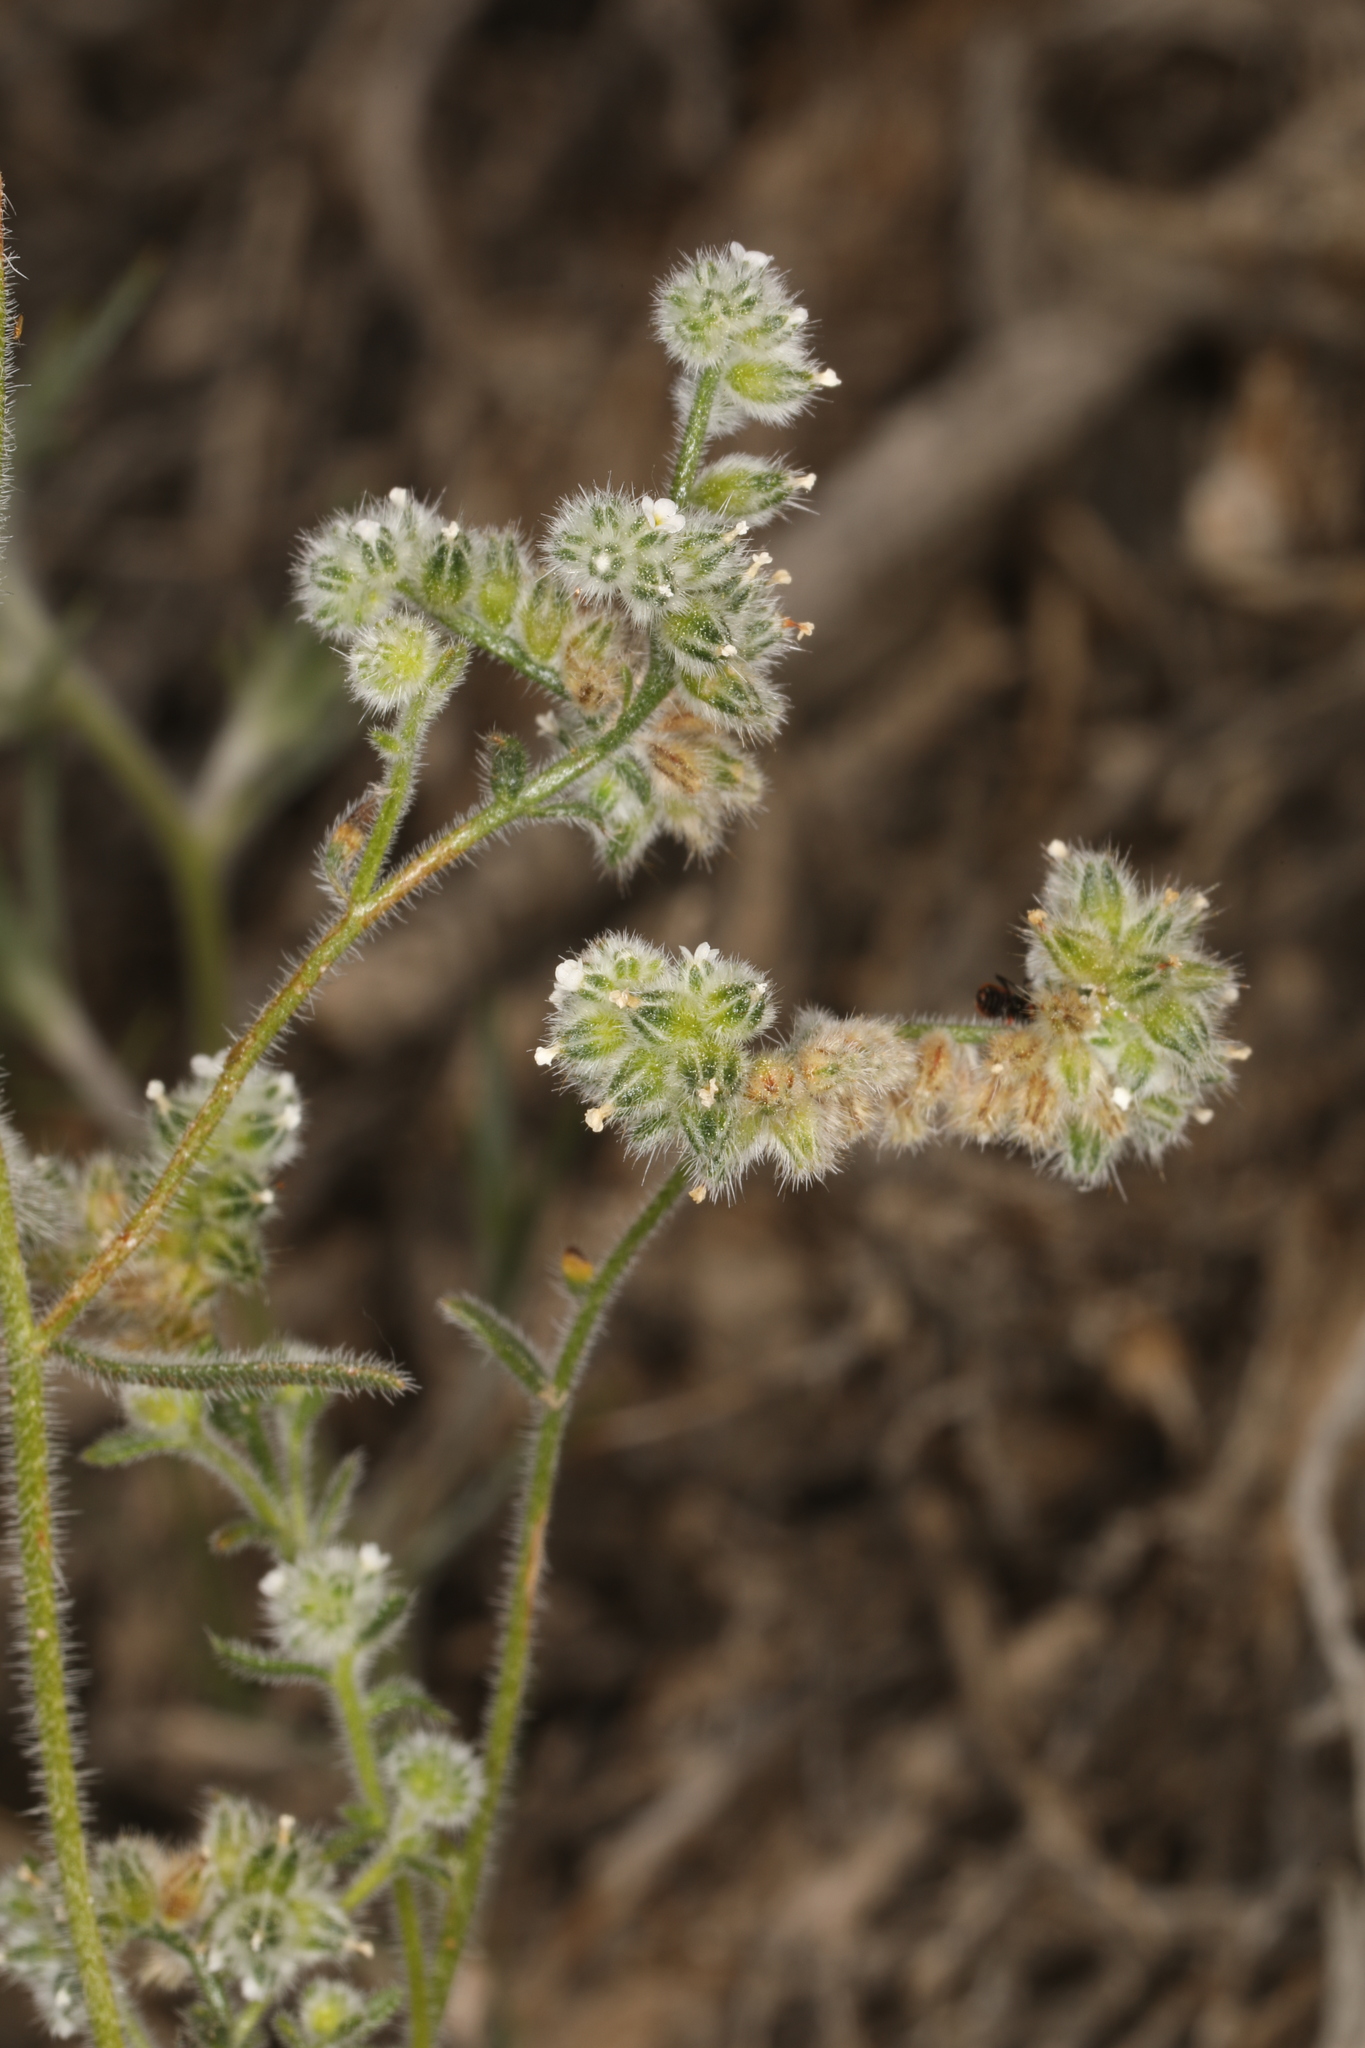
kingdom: Plantae
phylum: Tracheophyta
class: Magnoliopsida
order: Boraginales
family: Boraginaceae
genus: Cryptantha
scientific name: Cryptantha gracilis
